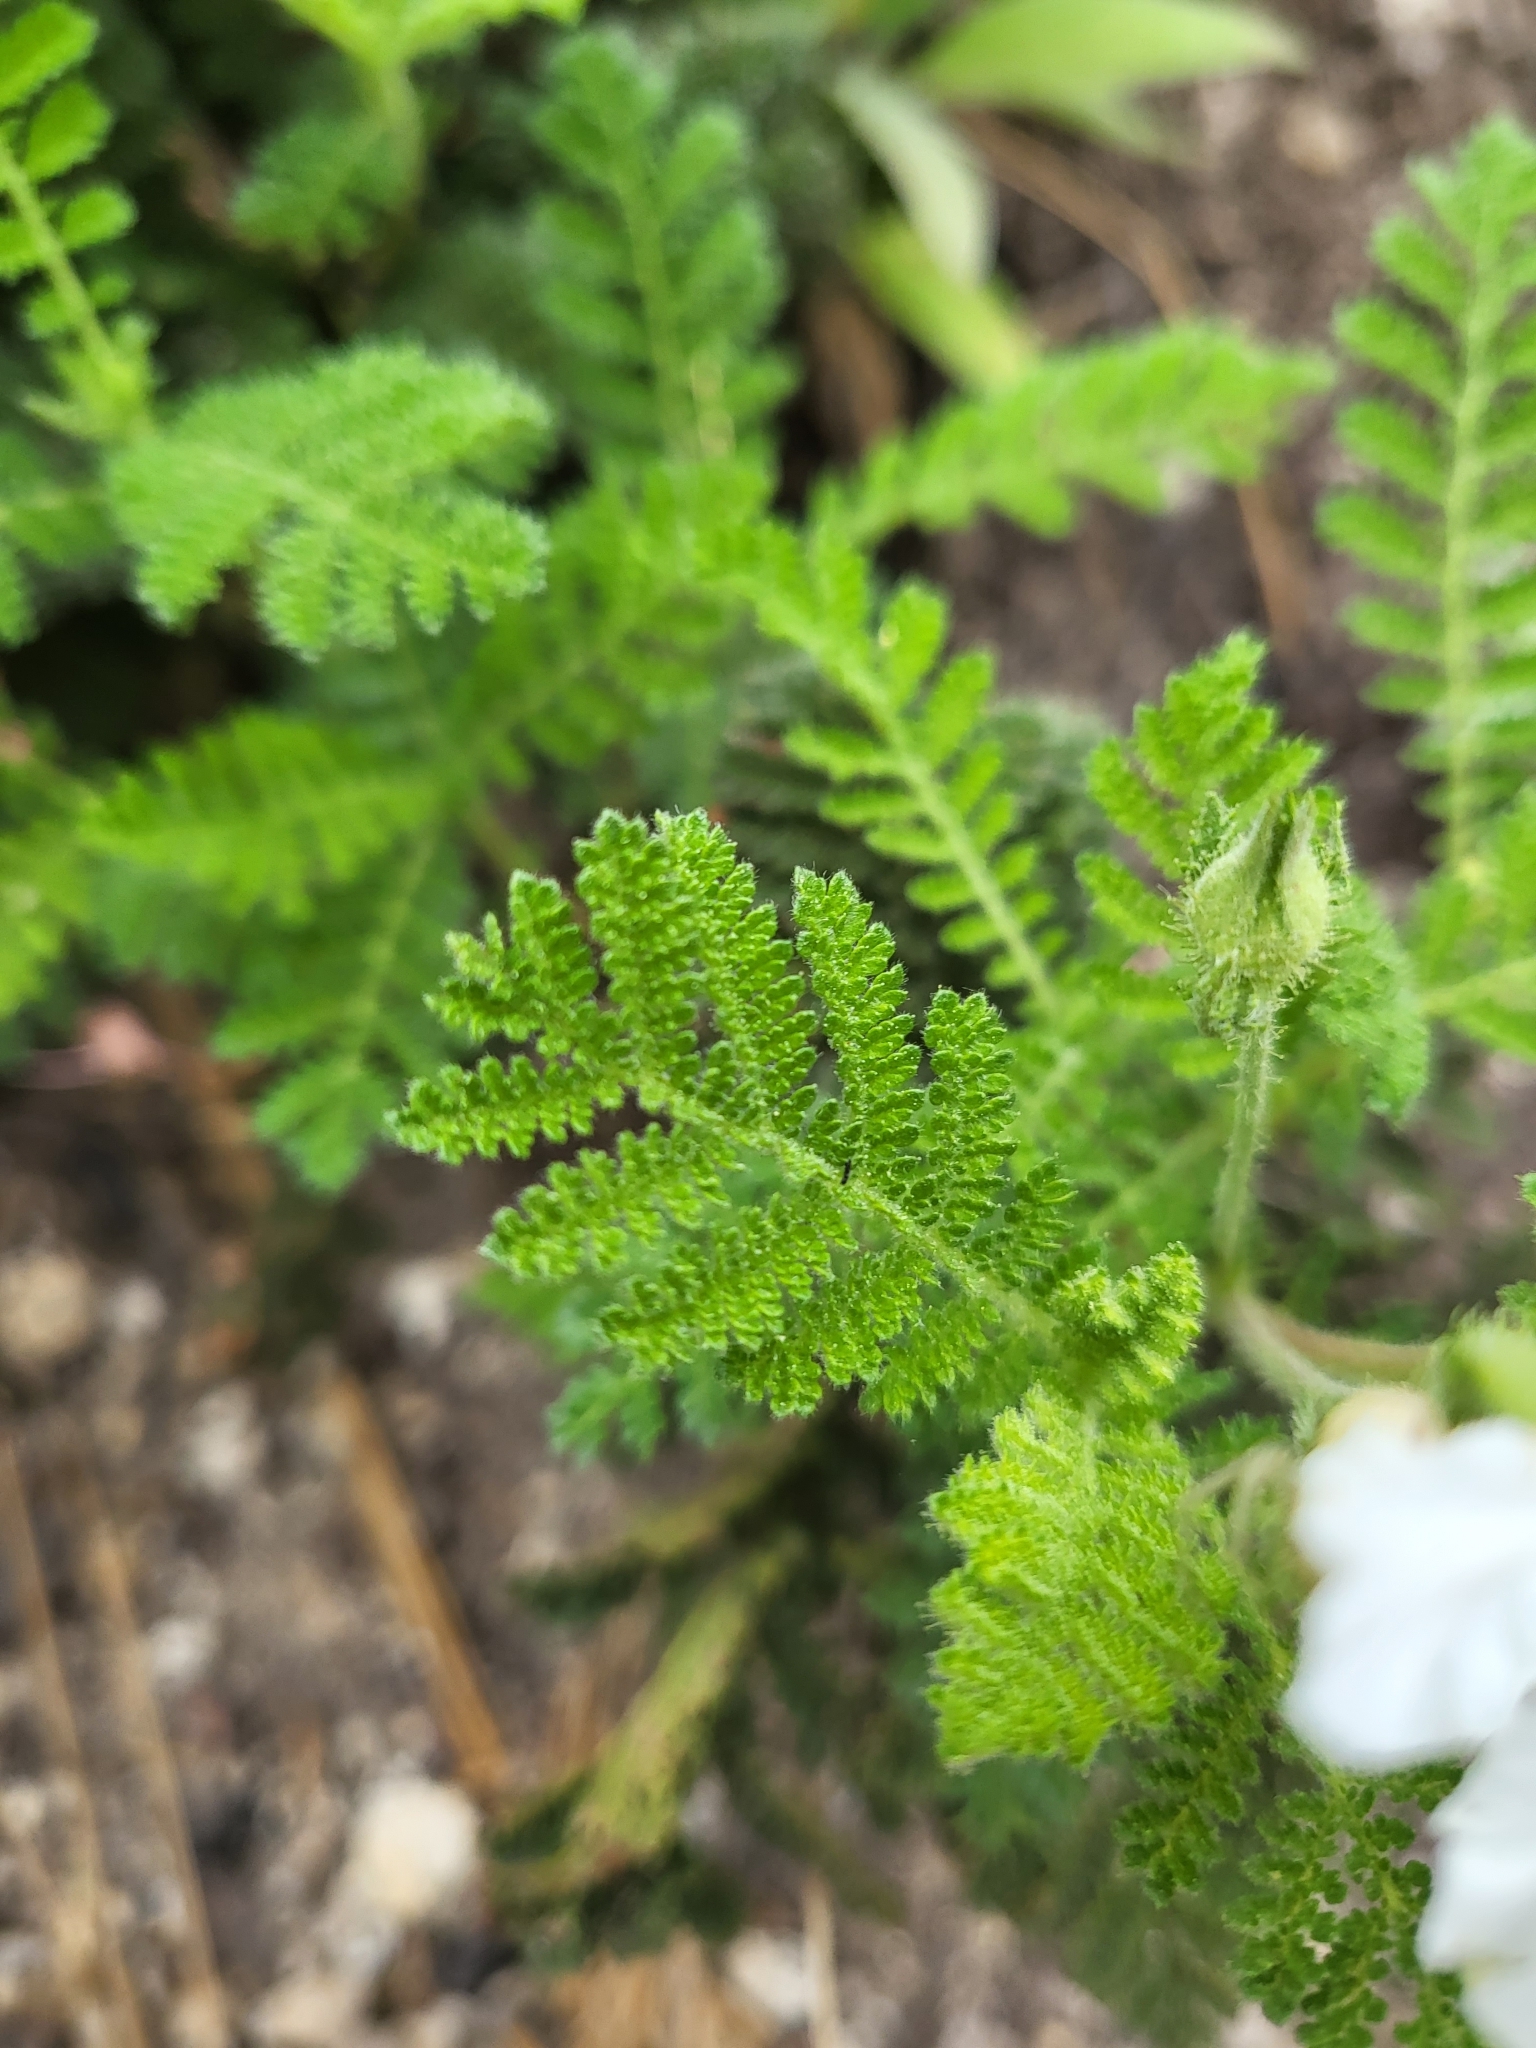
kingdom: Plantae
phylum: Tracheophyta
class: Magnoliopsida
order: Rosales
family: Rosaceae
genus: Chamaebatia
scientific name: Chamaebatia foliolosa
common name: Mountain misery
